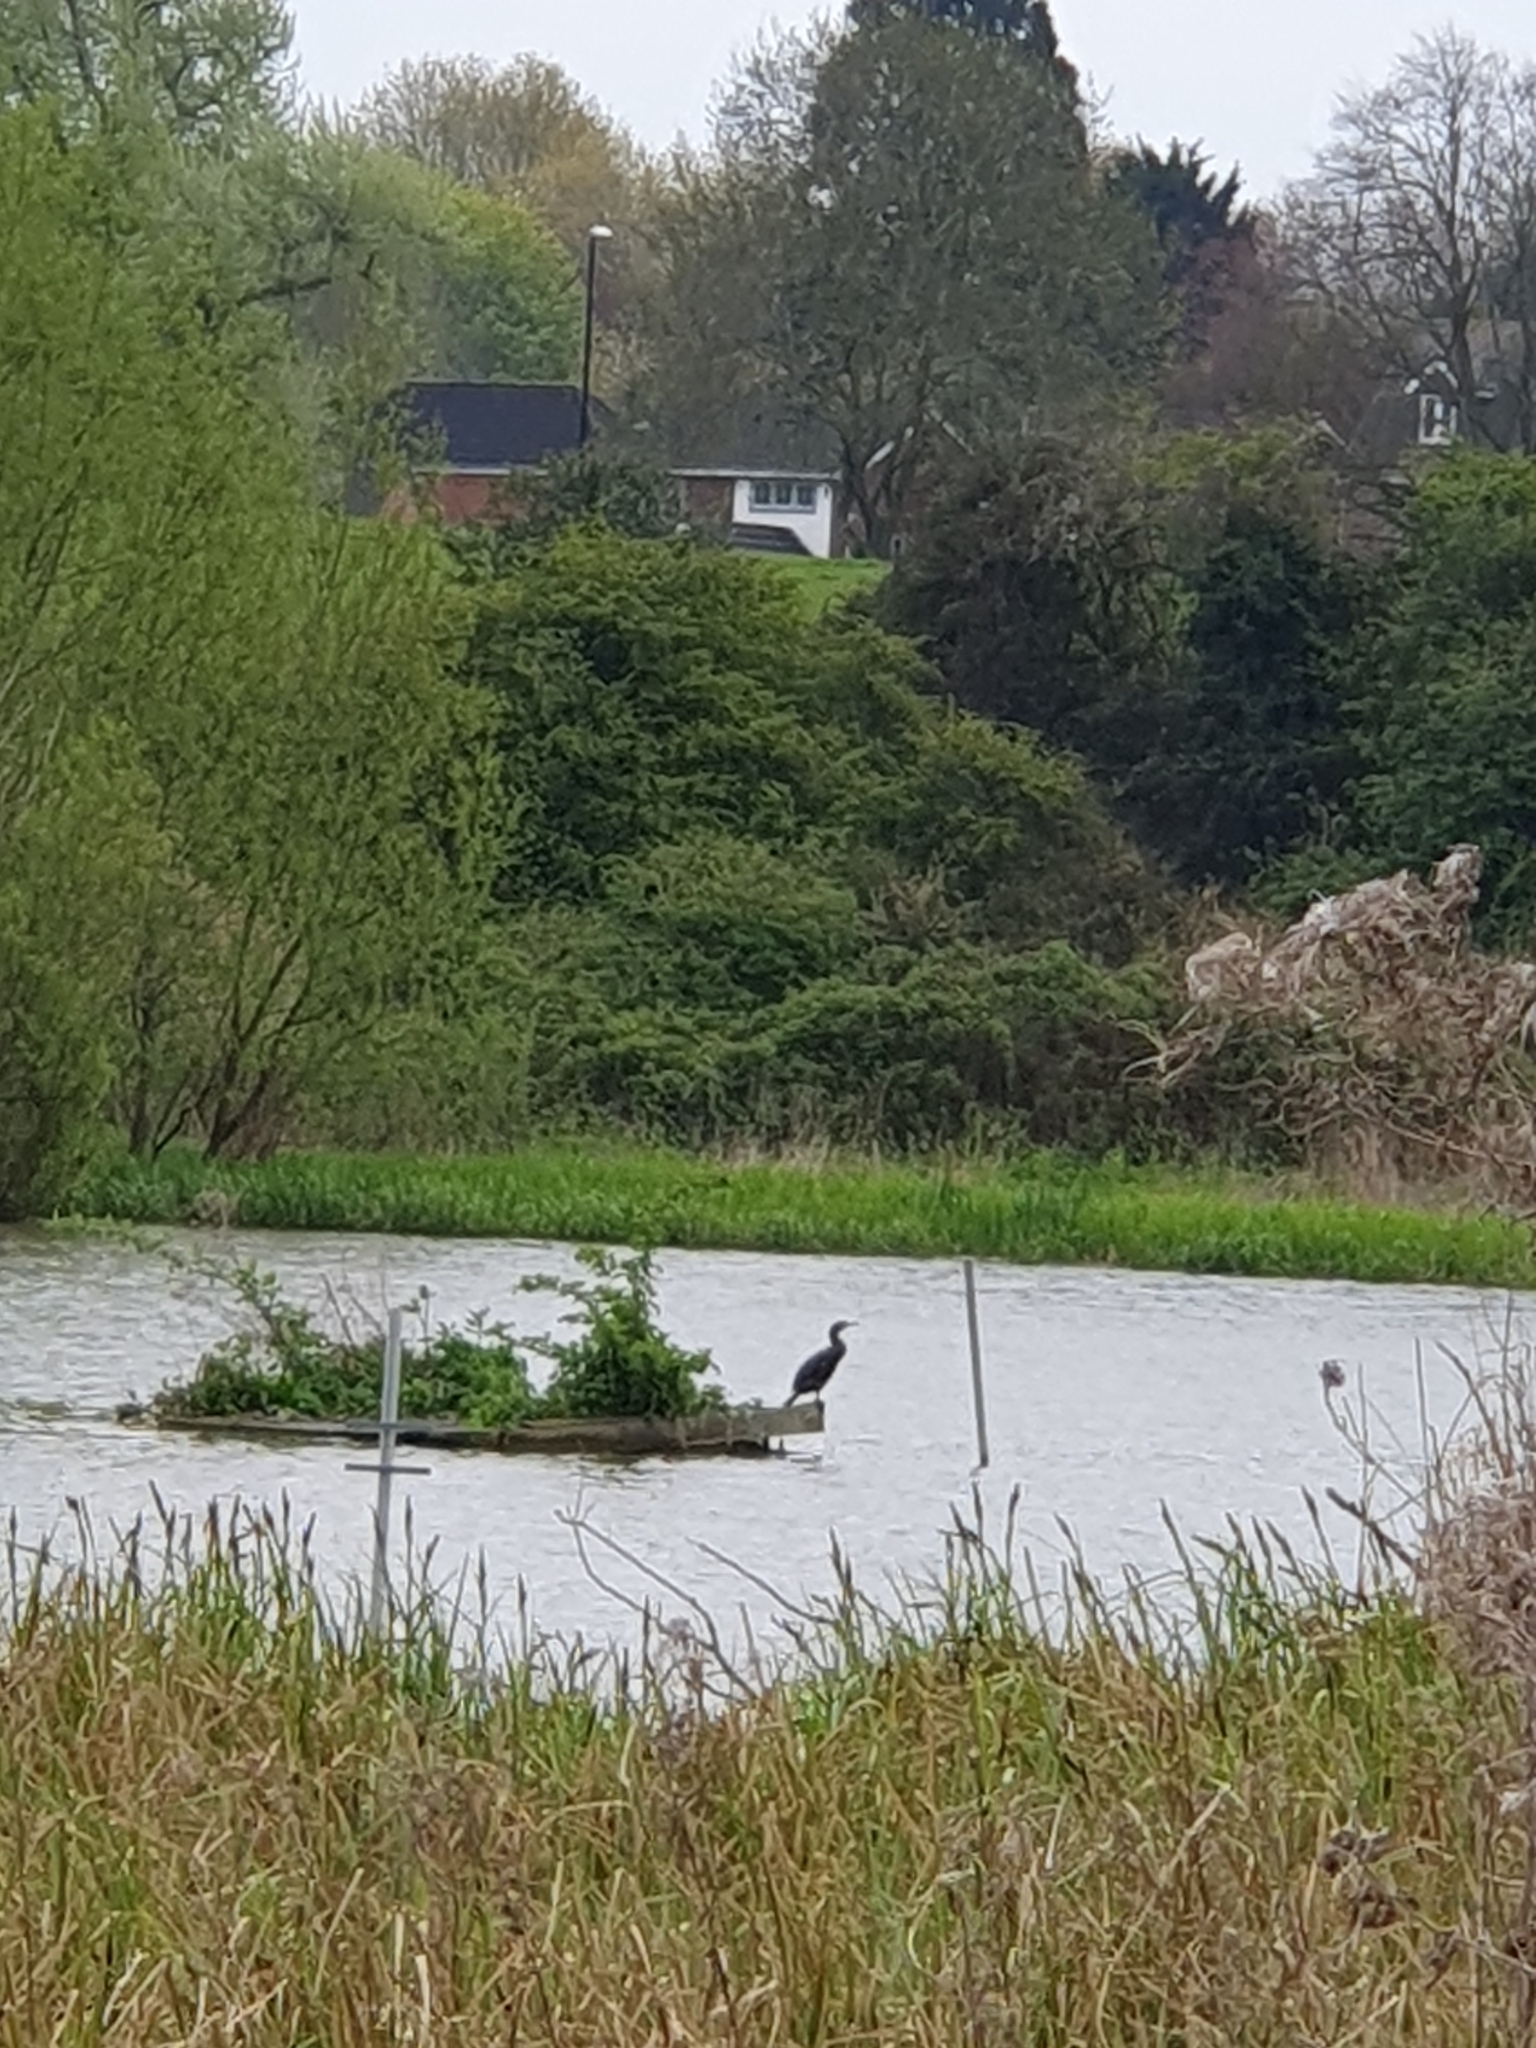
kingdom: Animalia
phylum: Chordata
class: Aves
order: Suliformes
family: Phalacrocoracidae
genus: Phalacrocorax
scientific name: Phalacrocorax carbo
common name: Great cormorant
